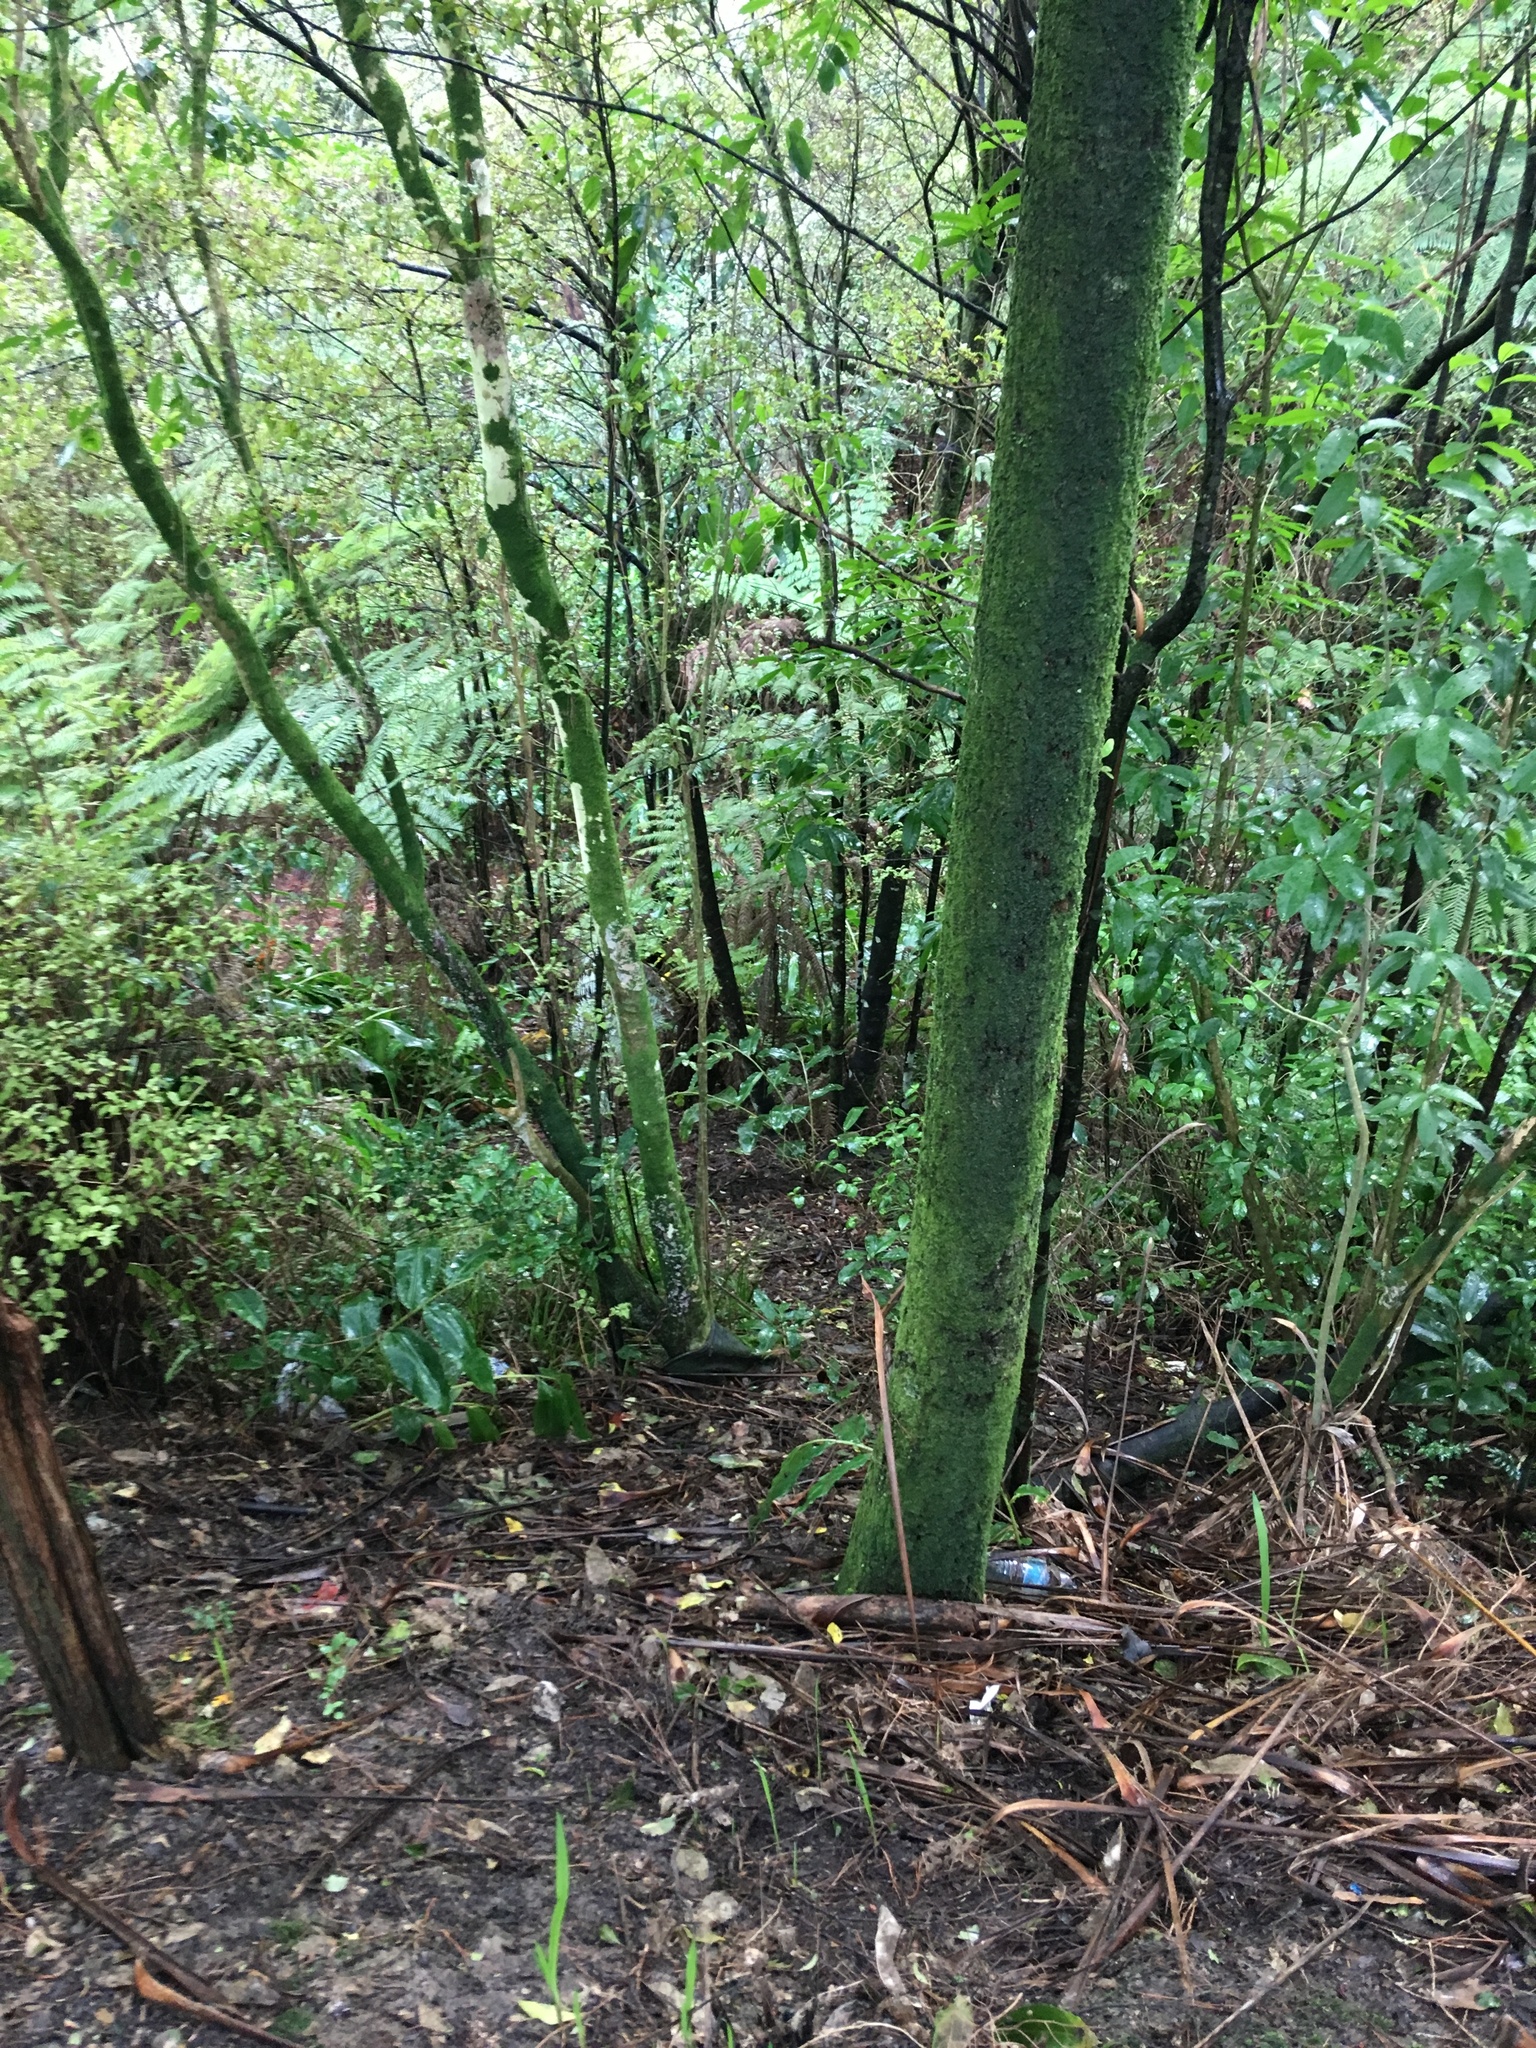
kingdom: Plantae
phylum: Tracheophyta
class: Magnoliopsida
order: Lamiales
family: Oleaceae
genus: Ligustrum
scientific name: Ligustrum sinense
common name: Chinese privet
